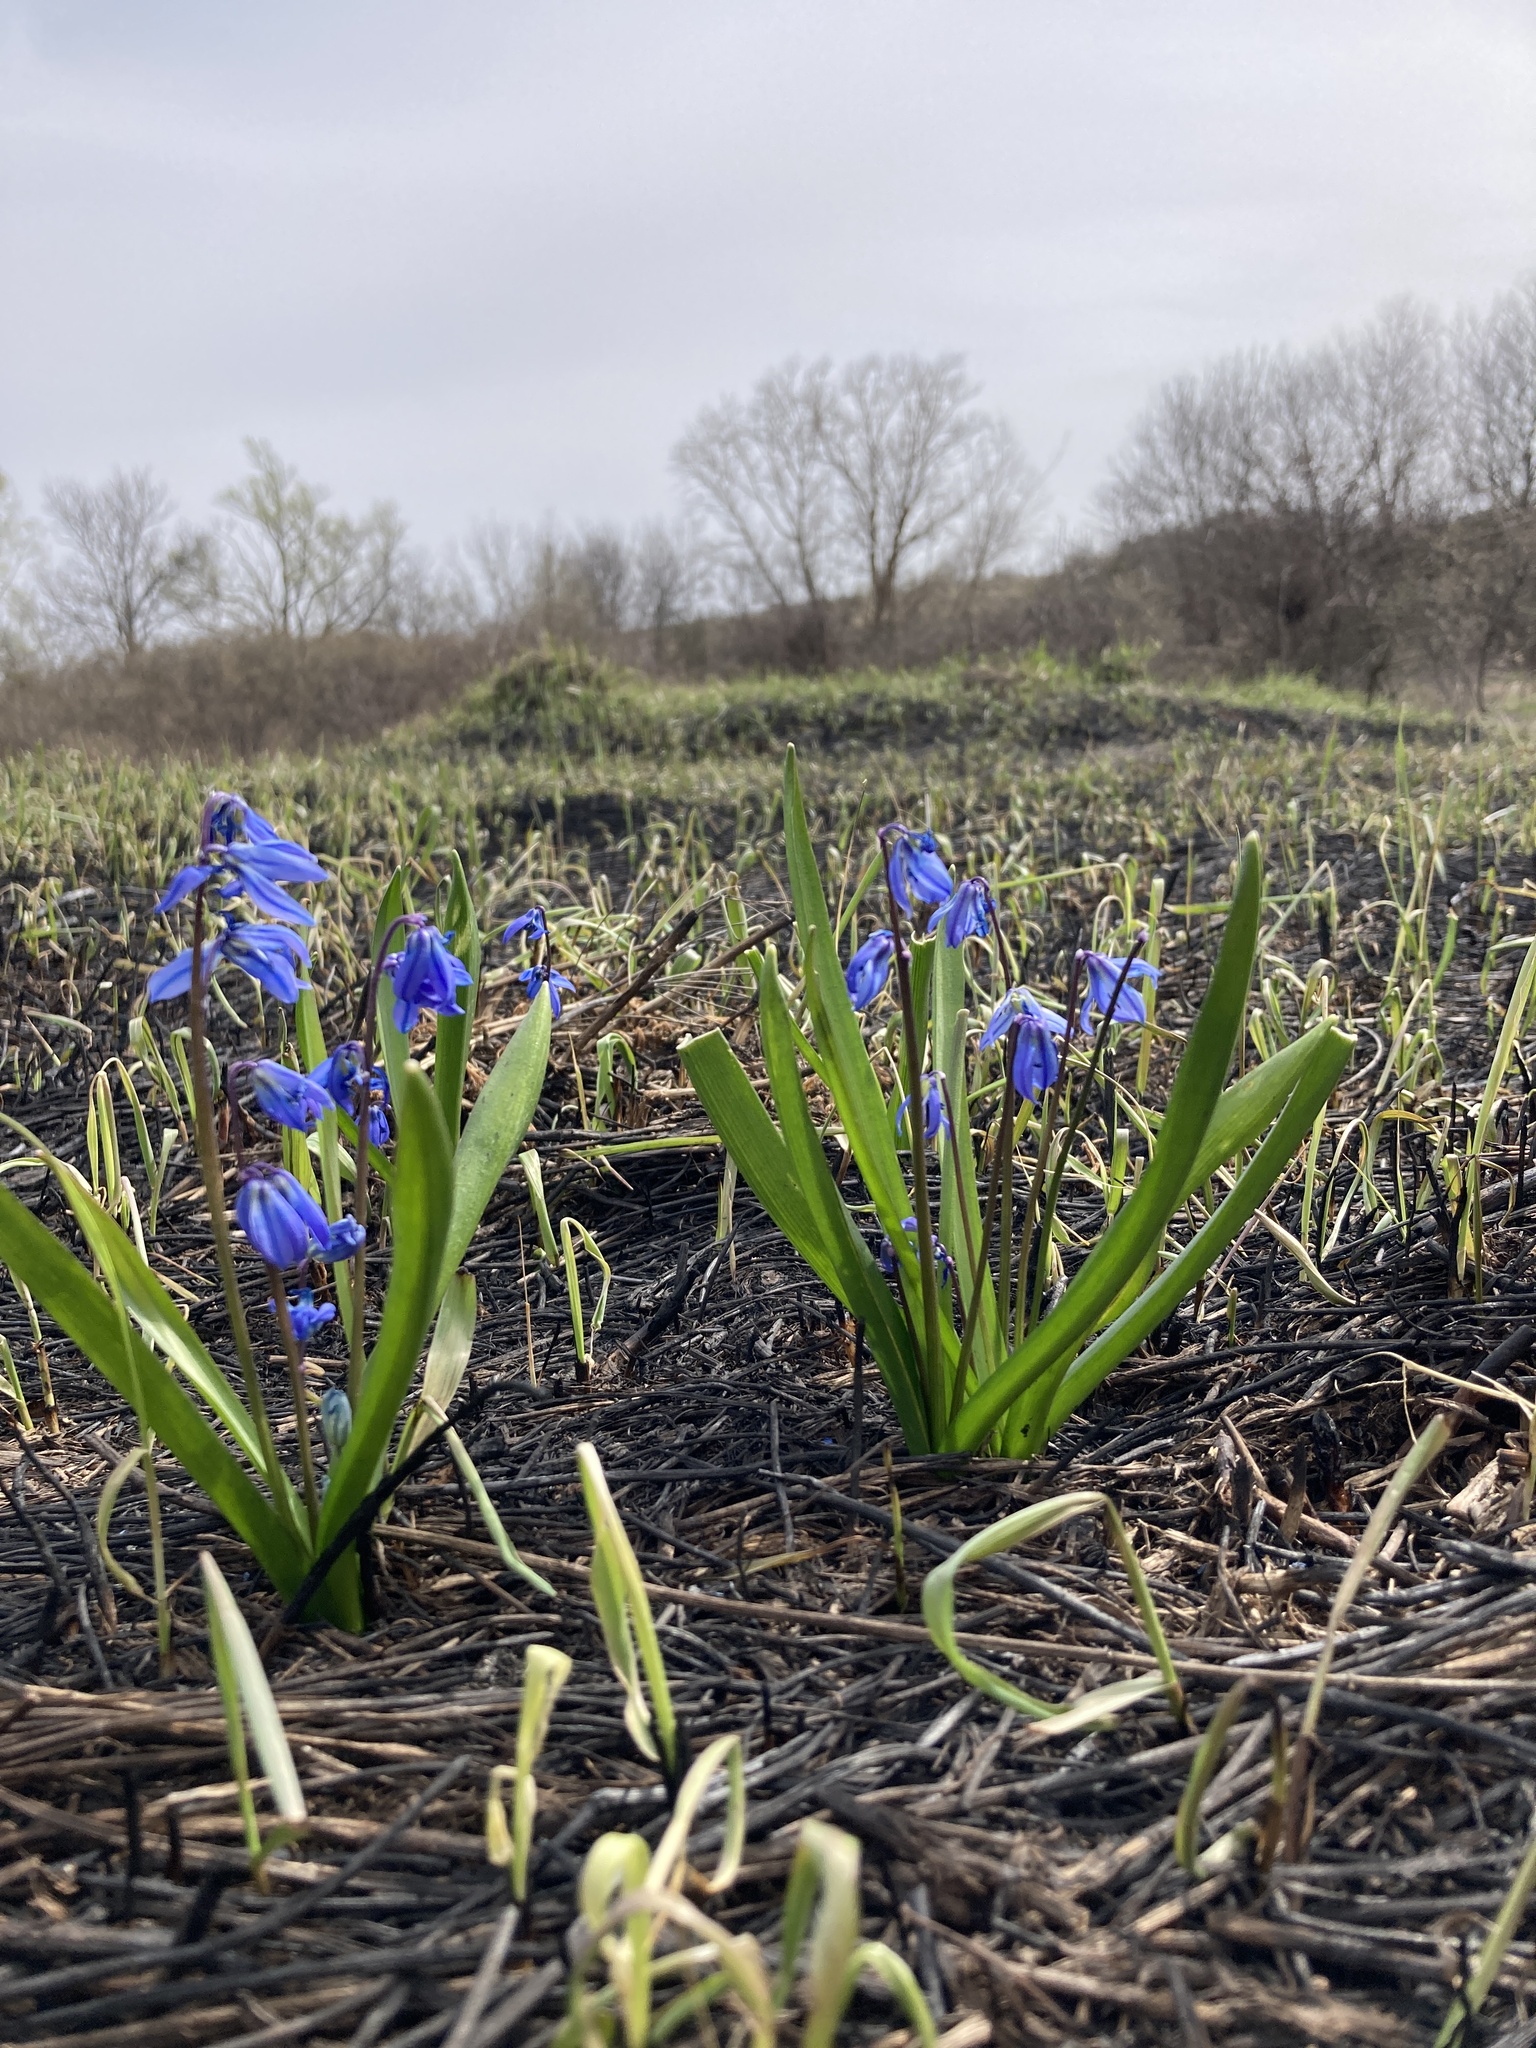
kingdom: Plantae
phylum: Tracheophyta
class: Liliopsida
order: Asparagales
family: Asparagaceae
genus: Scilla
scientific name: Scilla siberica
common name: Siberian squill
